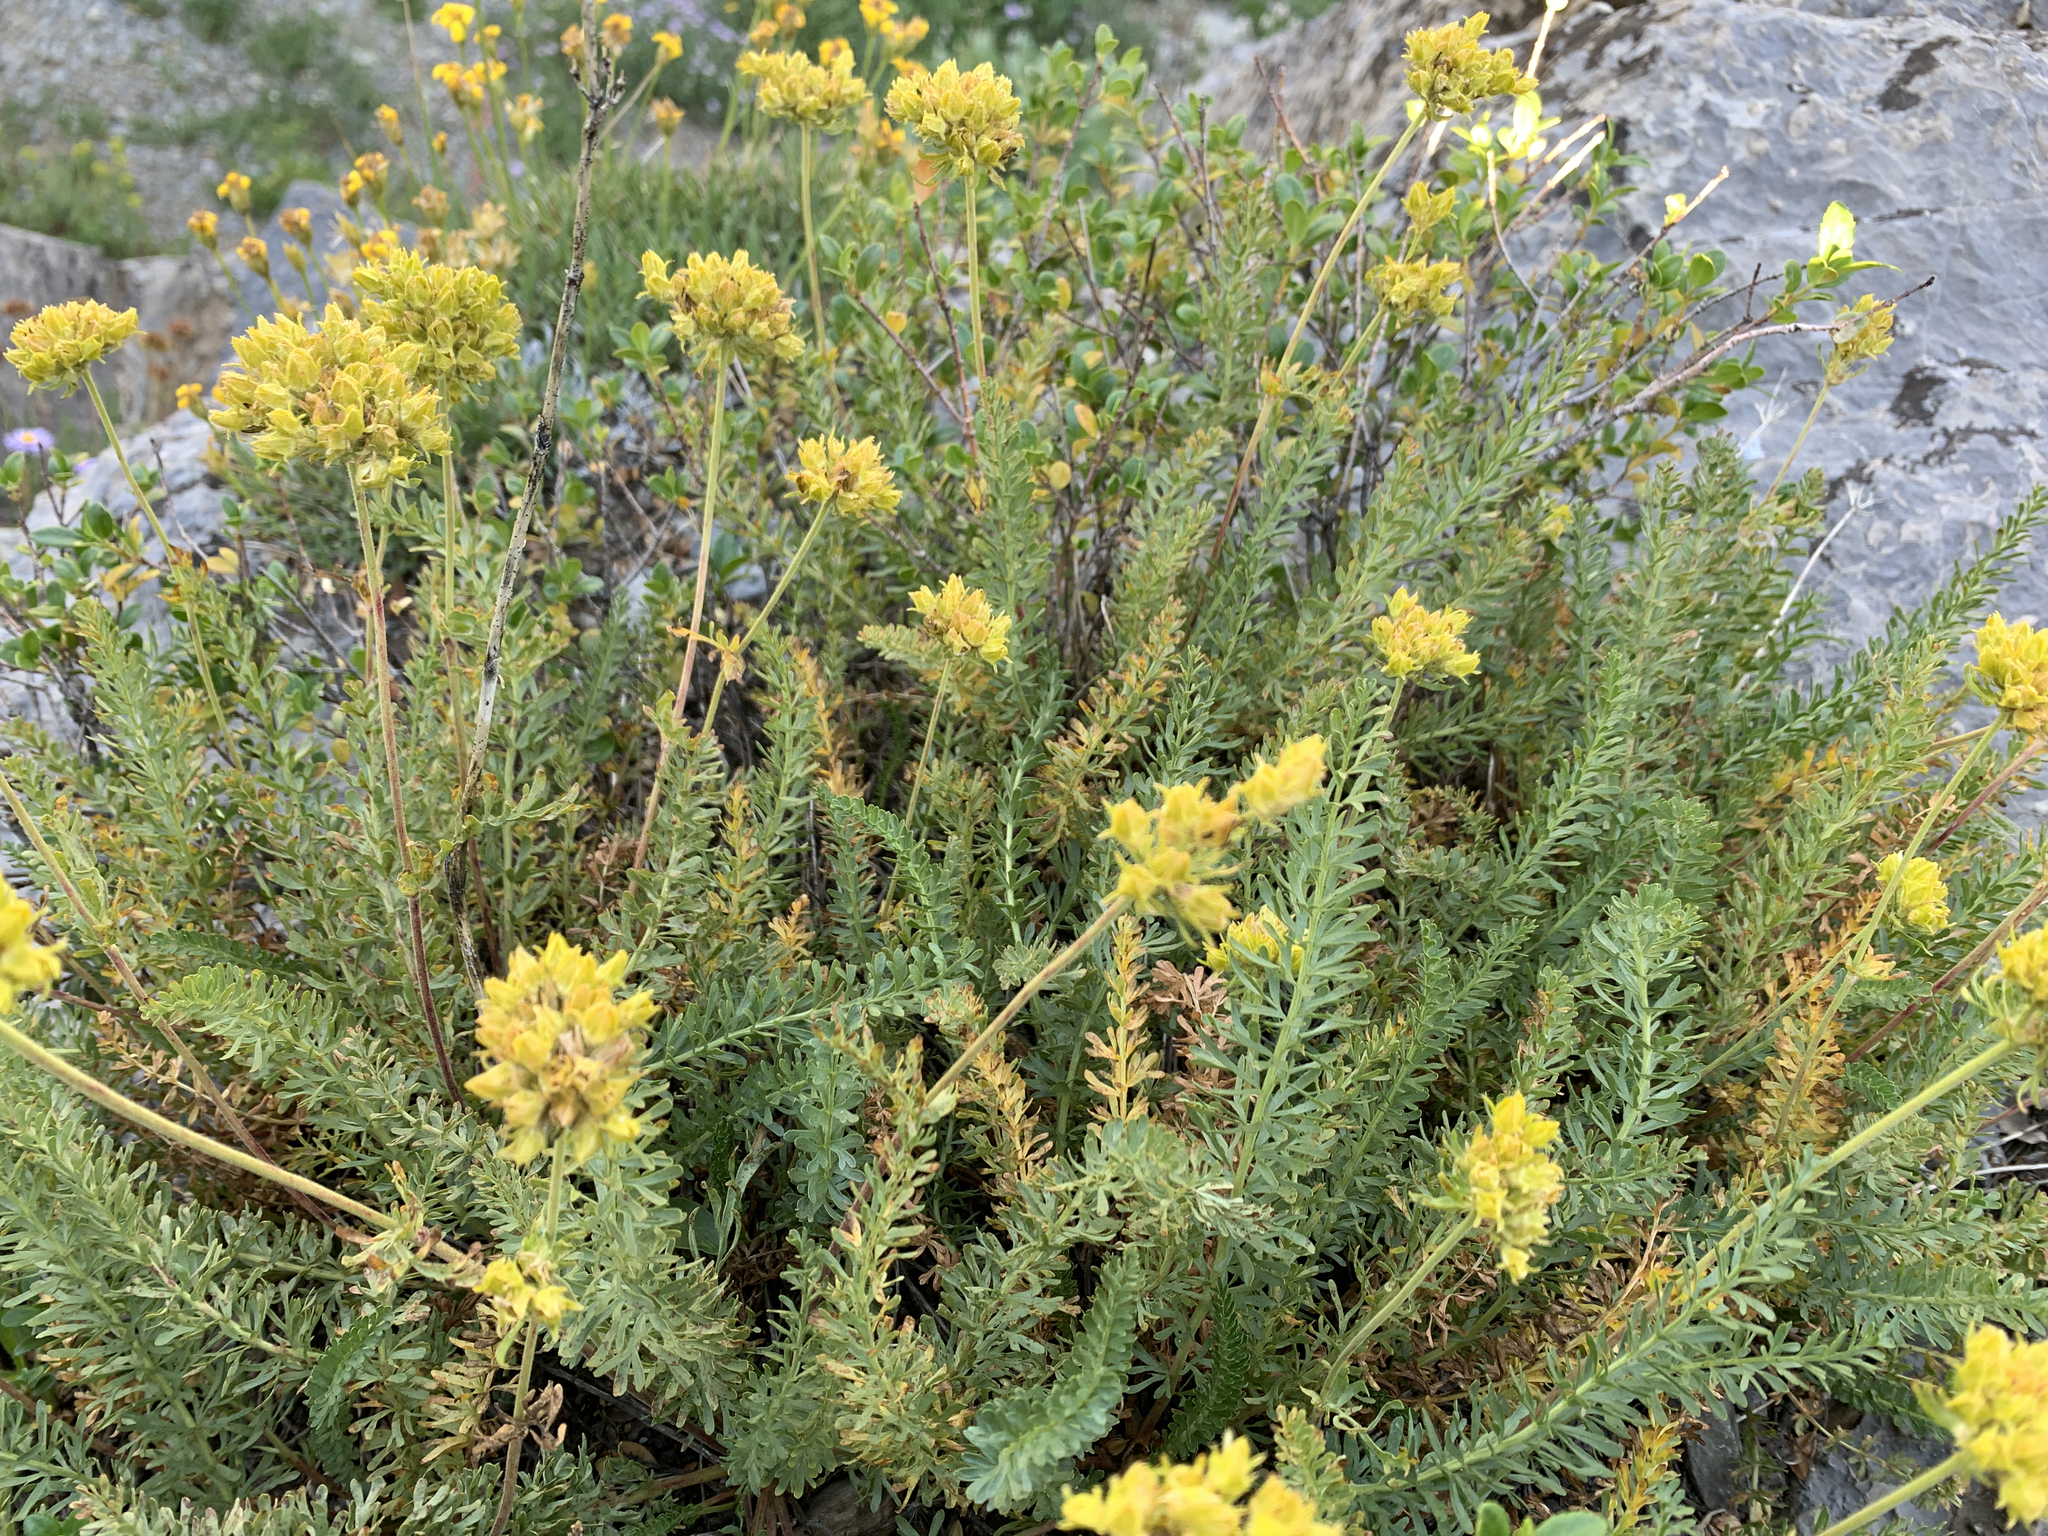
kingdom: Plantae
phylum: Tracheophyta
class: Magnoliopsida
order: Rosales
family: Rosaceae
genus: Potentilla
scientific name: Potentilla gordonii
